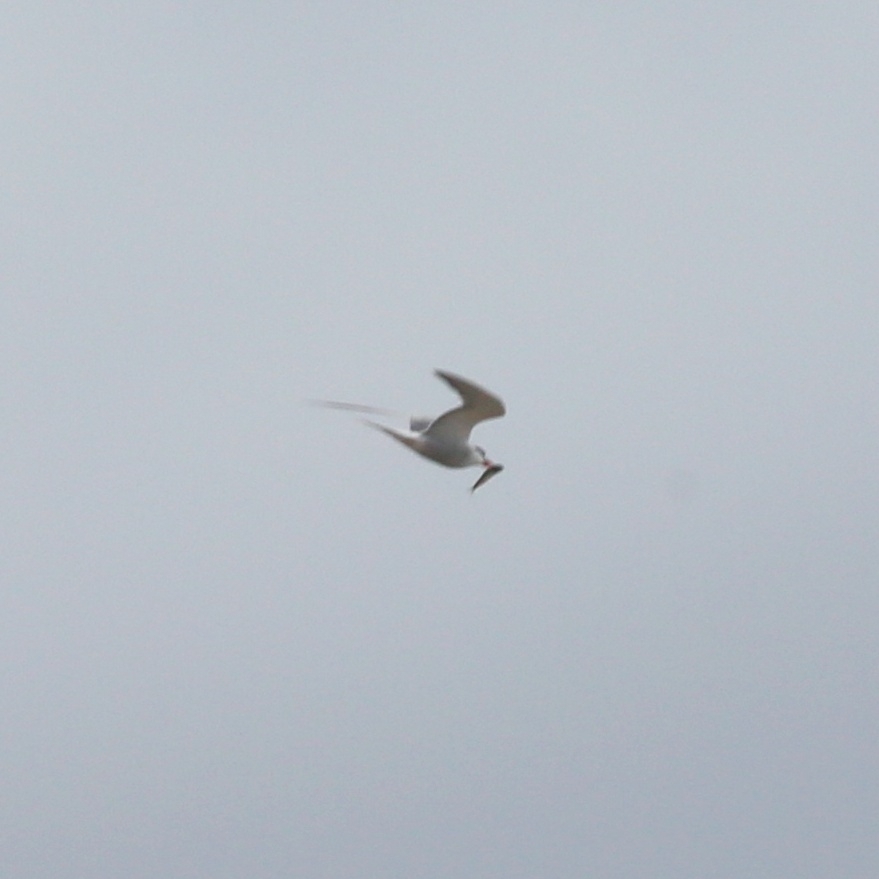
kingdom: Animalia
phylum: Chordata
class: Aves
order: Charadriiformes
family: Laridae
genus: Sterna
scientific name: Sterna hirundo
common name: Common tern
